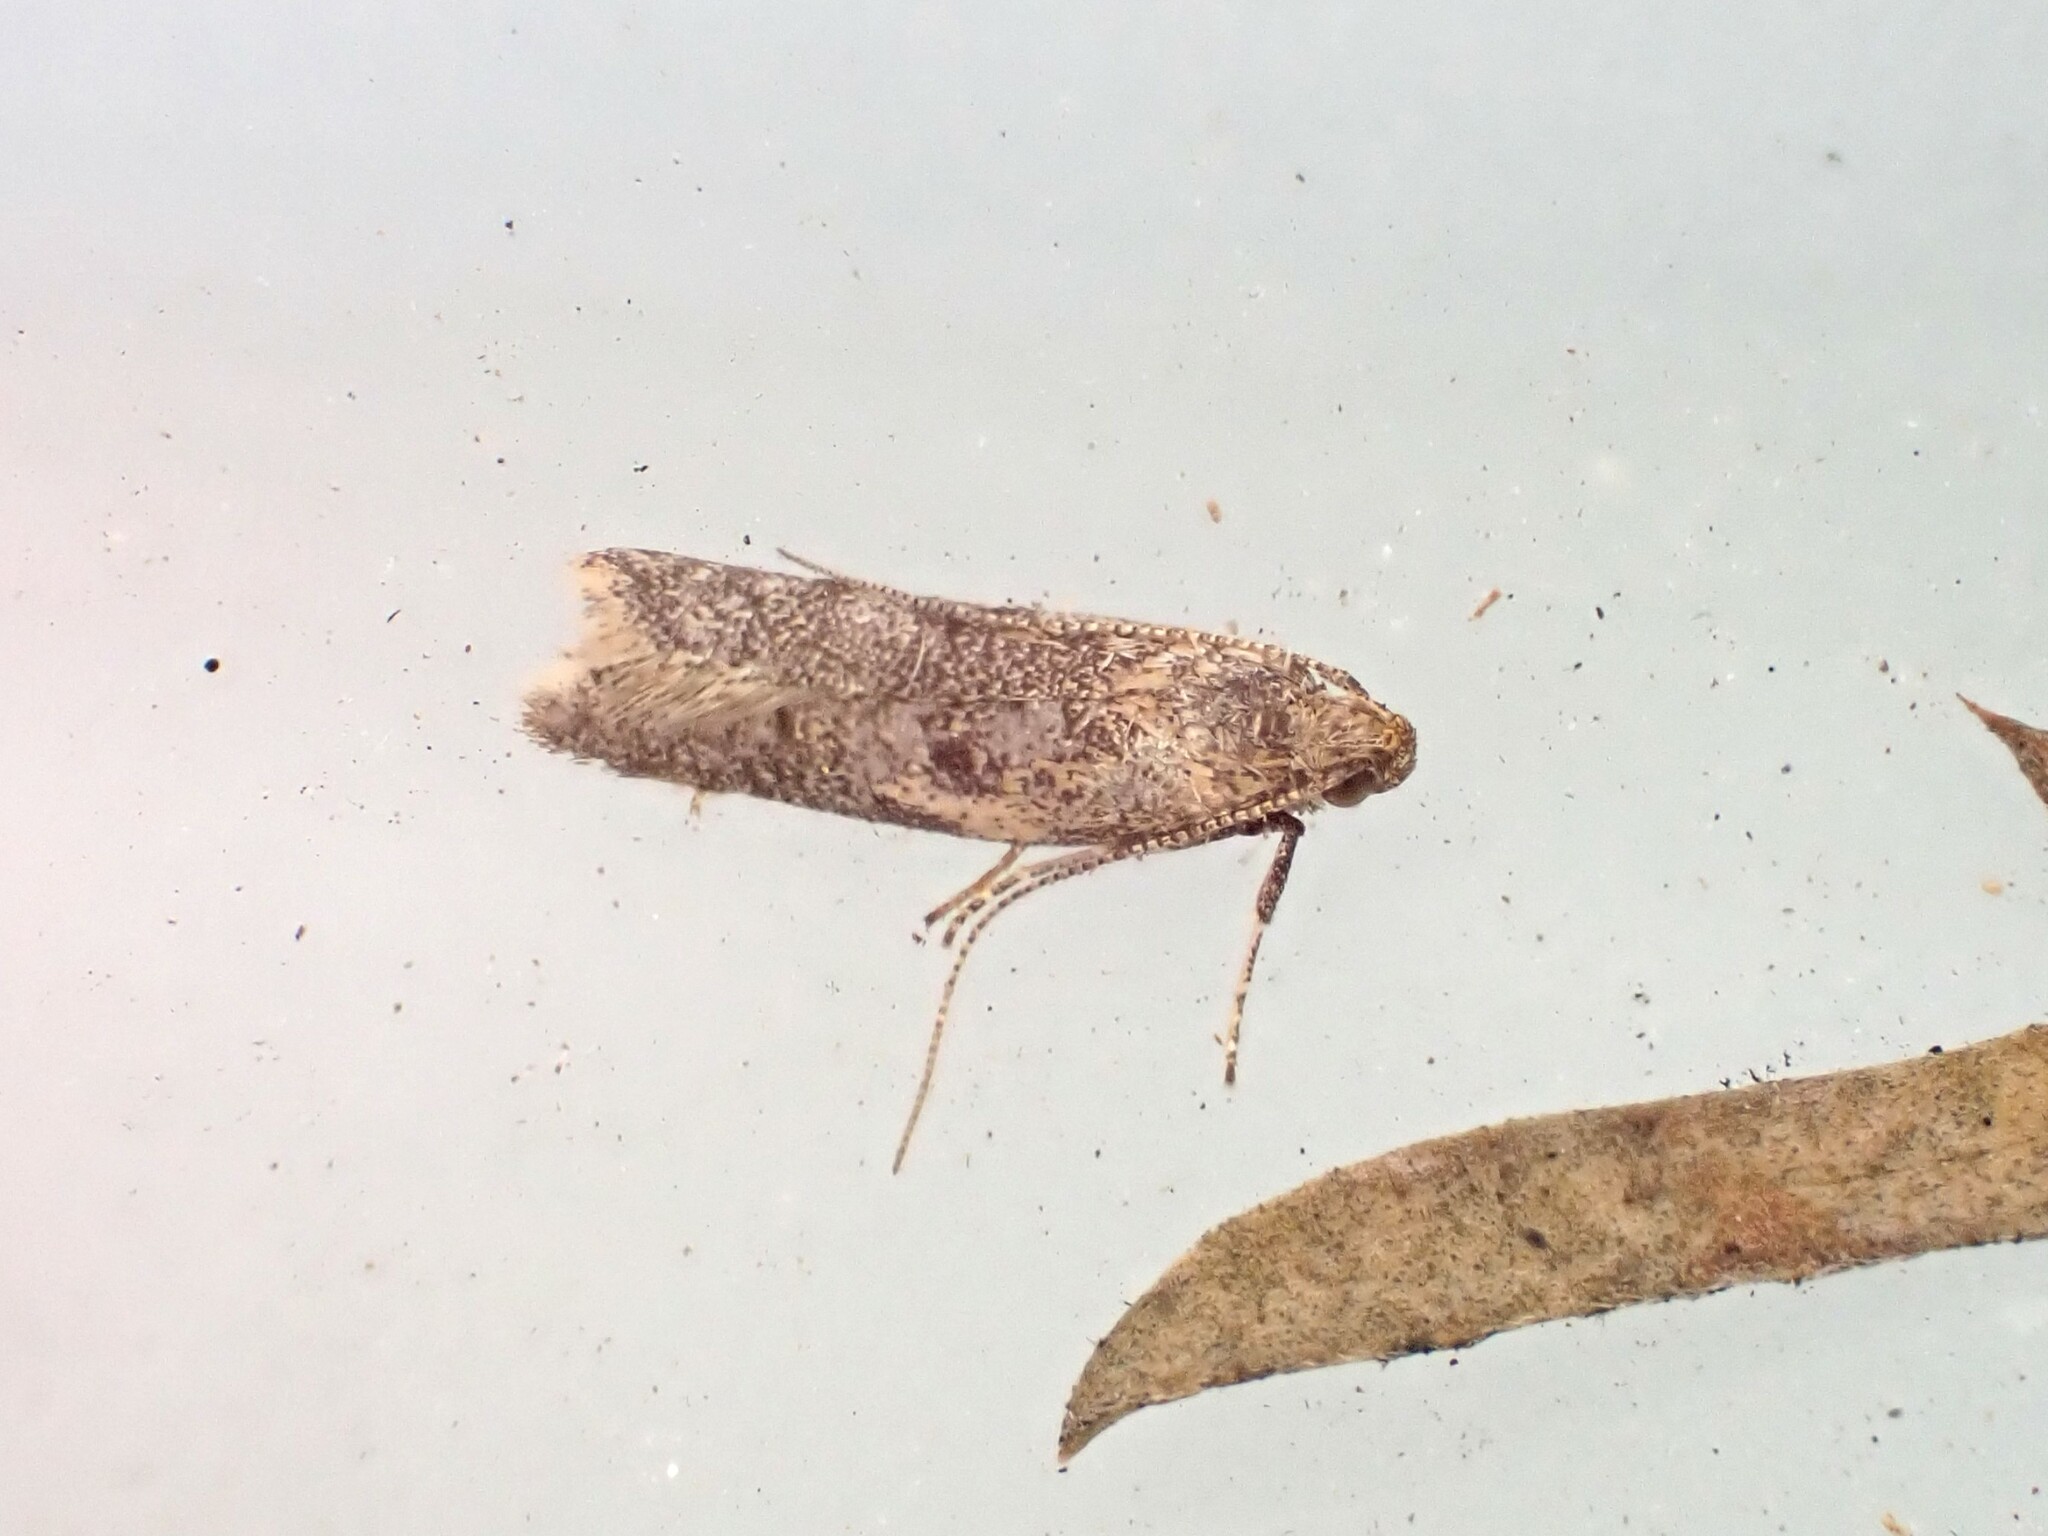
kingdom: Animalia
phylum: Arthropoda
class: Insecta
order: Lepidoptera
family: Oecophoridae
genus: Gymnobathra
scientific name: Gymnobathra tholodella
